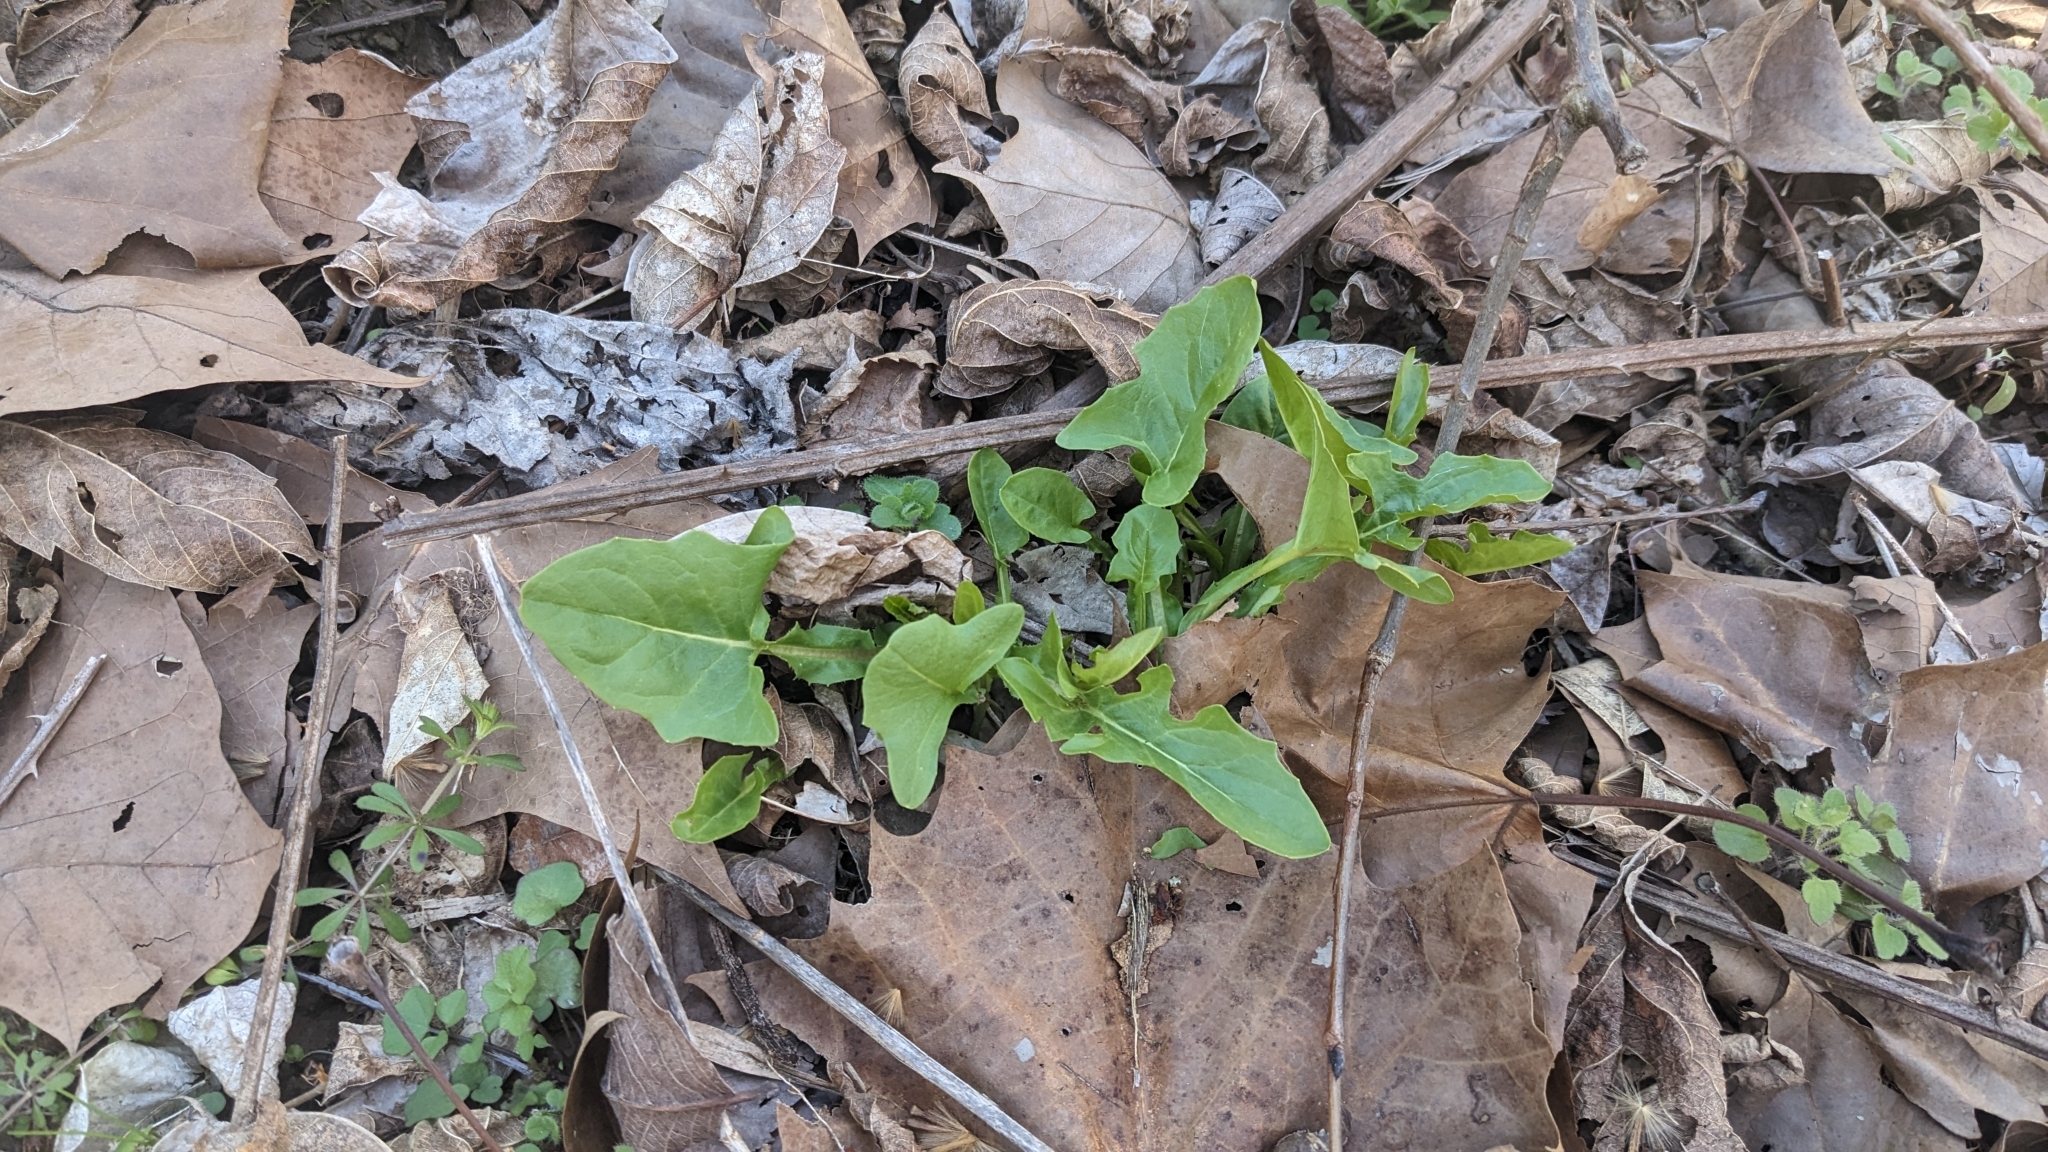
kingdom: Plantae
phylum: Tracheophyta
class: Magnoliopsida
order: Asterales
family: Asteraceae
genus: Nabalus
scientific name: Nabalus crepidineus
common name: Nodding rattlesnakeroot
